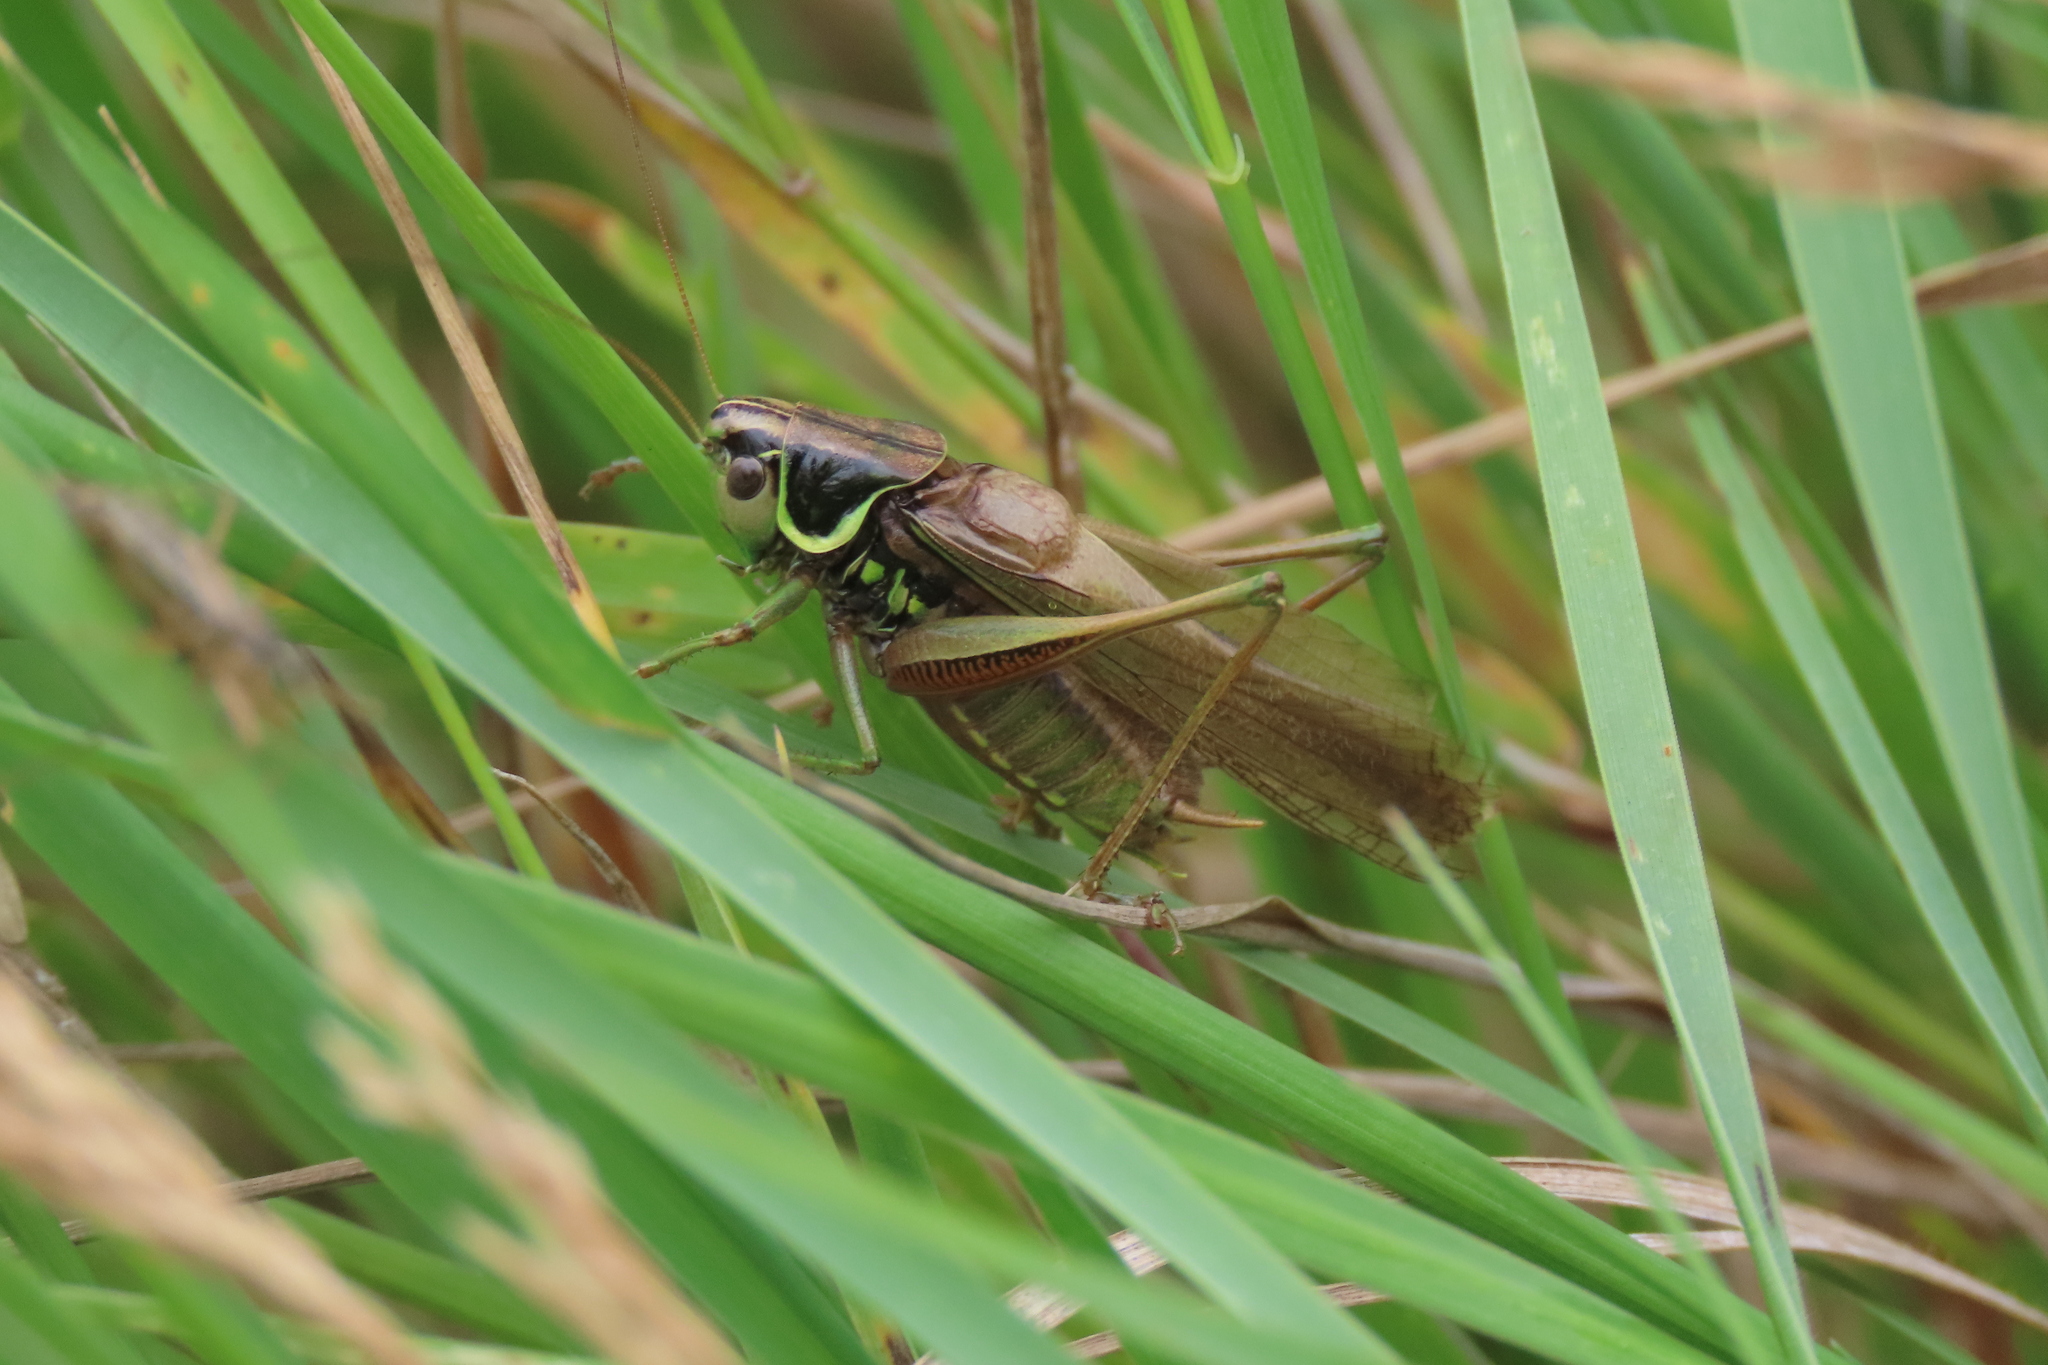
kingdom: Animalia
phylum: Arthropoda
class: Insecta
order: Orthoptera
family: Tettigoniidae
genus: Roeseliana
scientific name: Roeseliana roeselii
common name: Roesel's bush cricket
